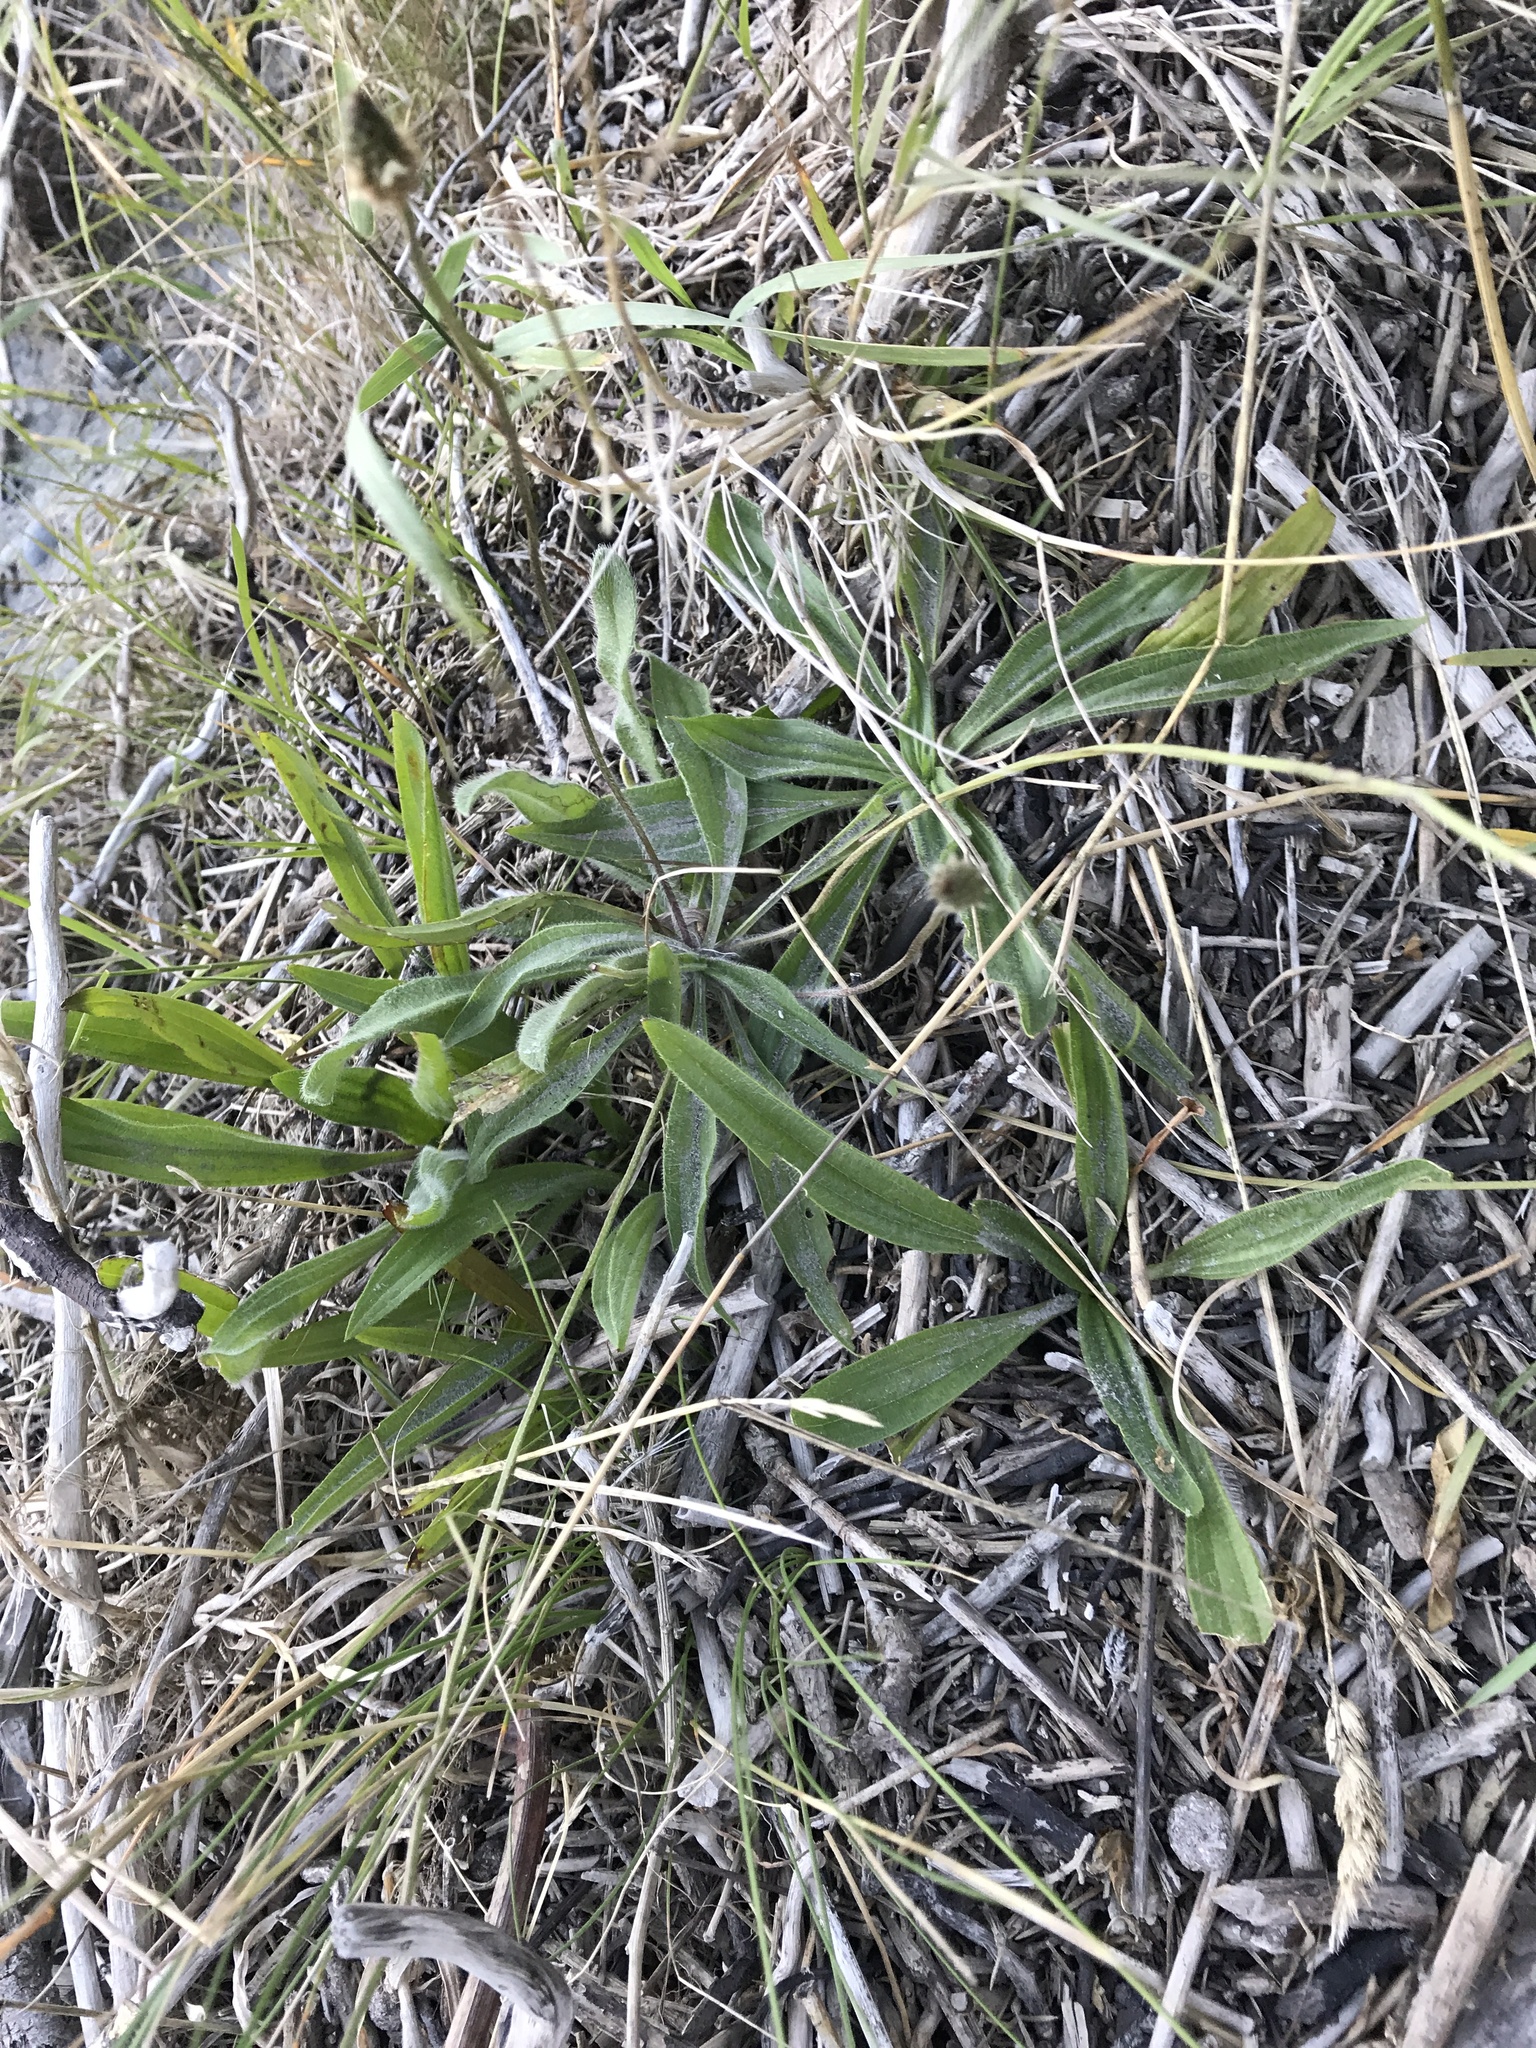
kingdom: Plantae
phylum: Tracheophyta
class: Magnoliopsida
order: Lamiales
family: Plantaginaceae
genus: Plantago
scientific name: Plantago lanceolata
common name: Ribwort plantain
